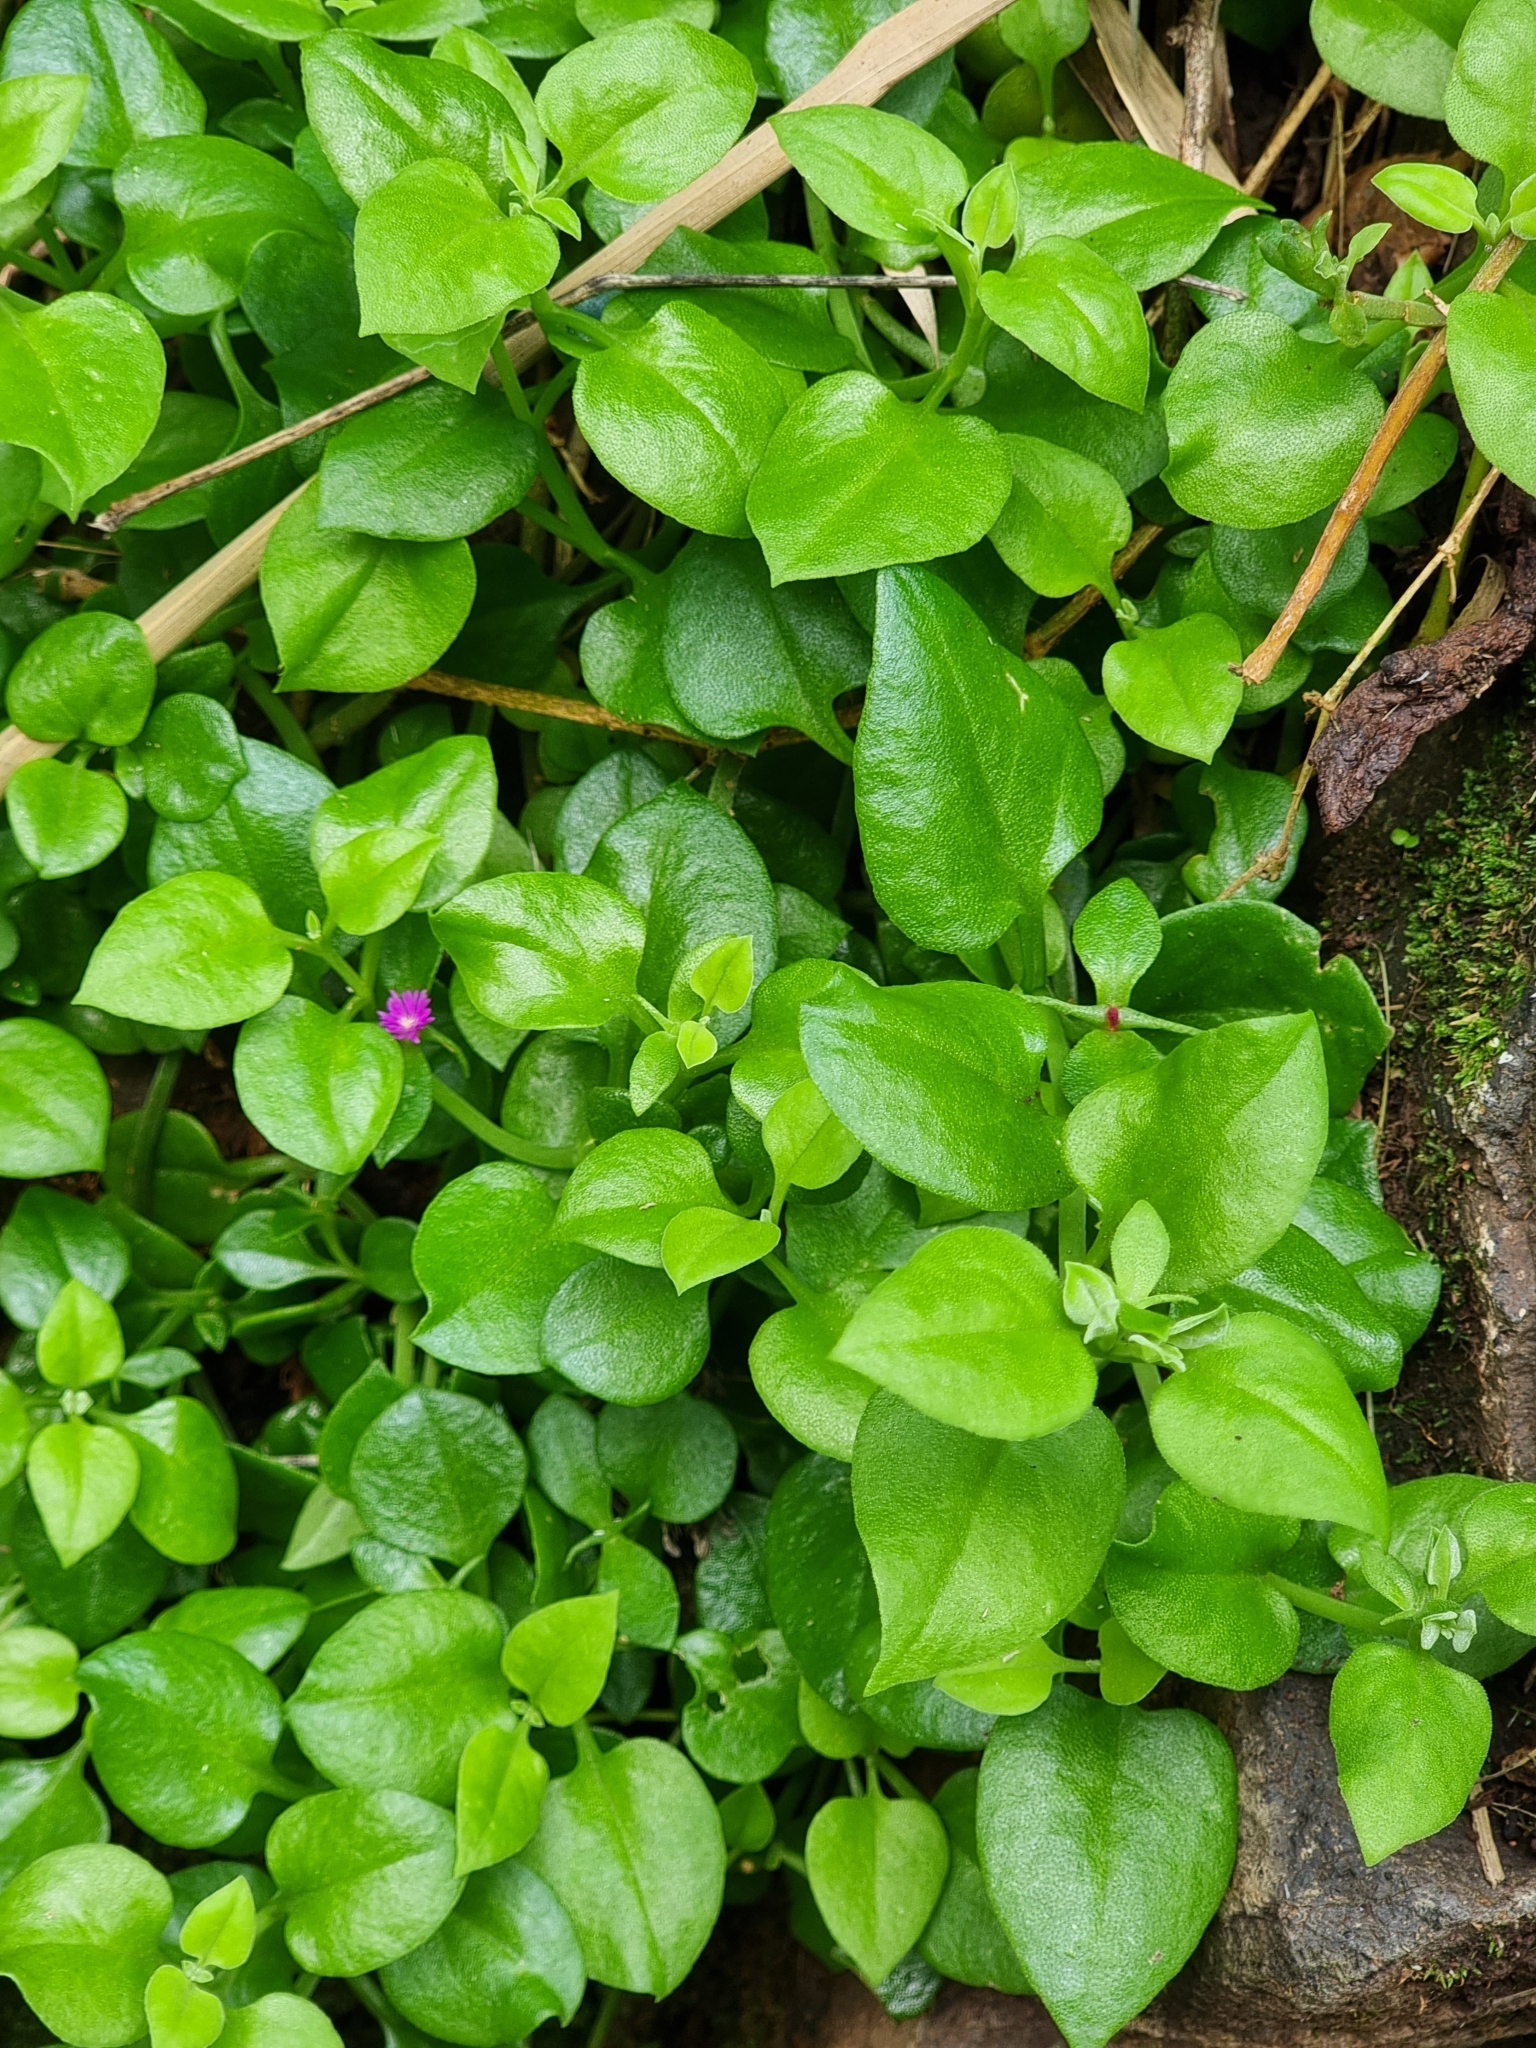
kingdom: Plantae
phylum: Tracheophyta
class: Magnoliopsida
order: Caryophyllales
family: Aizoaceae
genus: Mesembryanthemum
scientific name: Mesembryanthemum cordifolium
